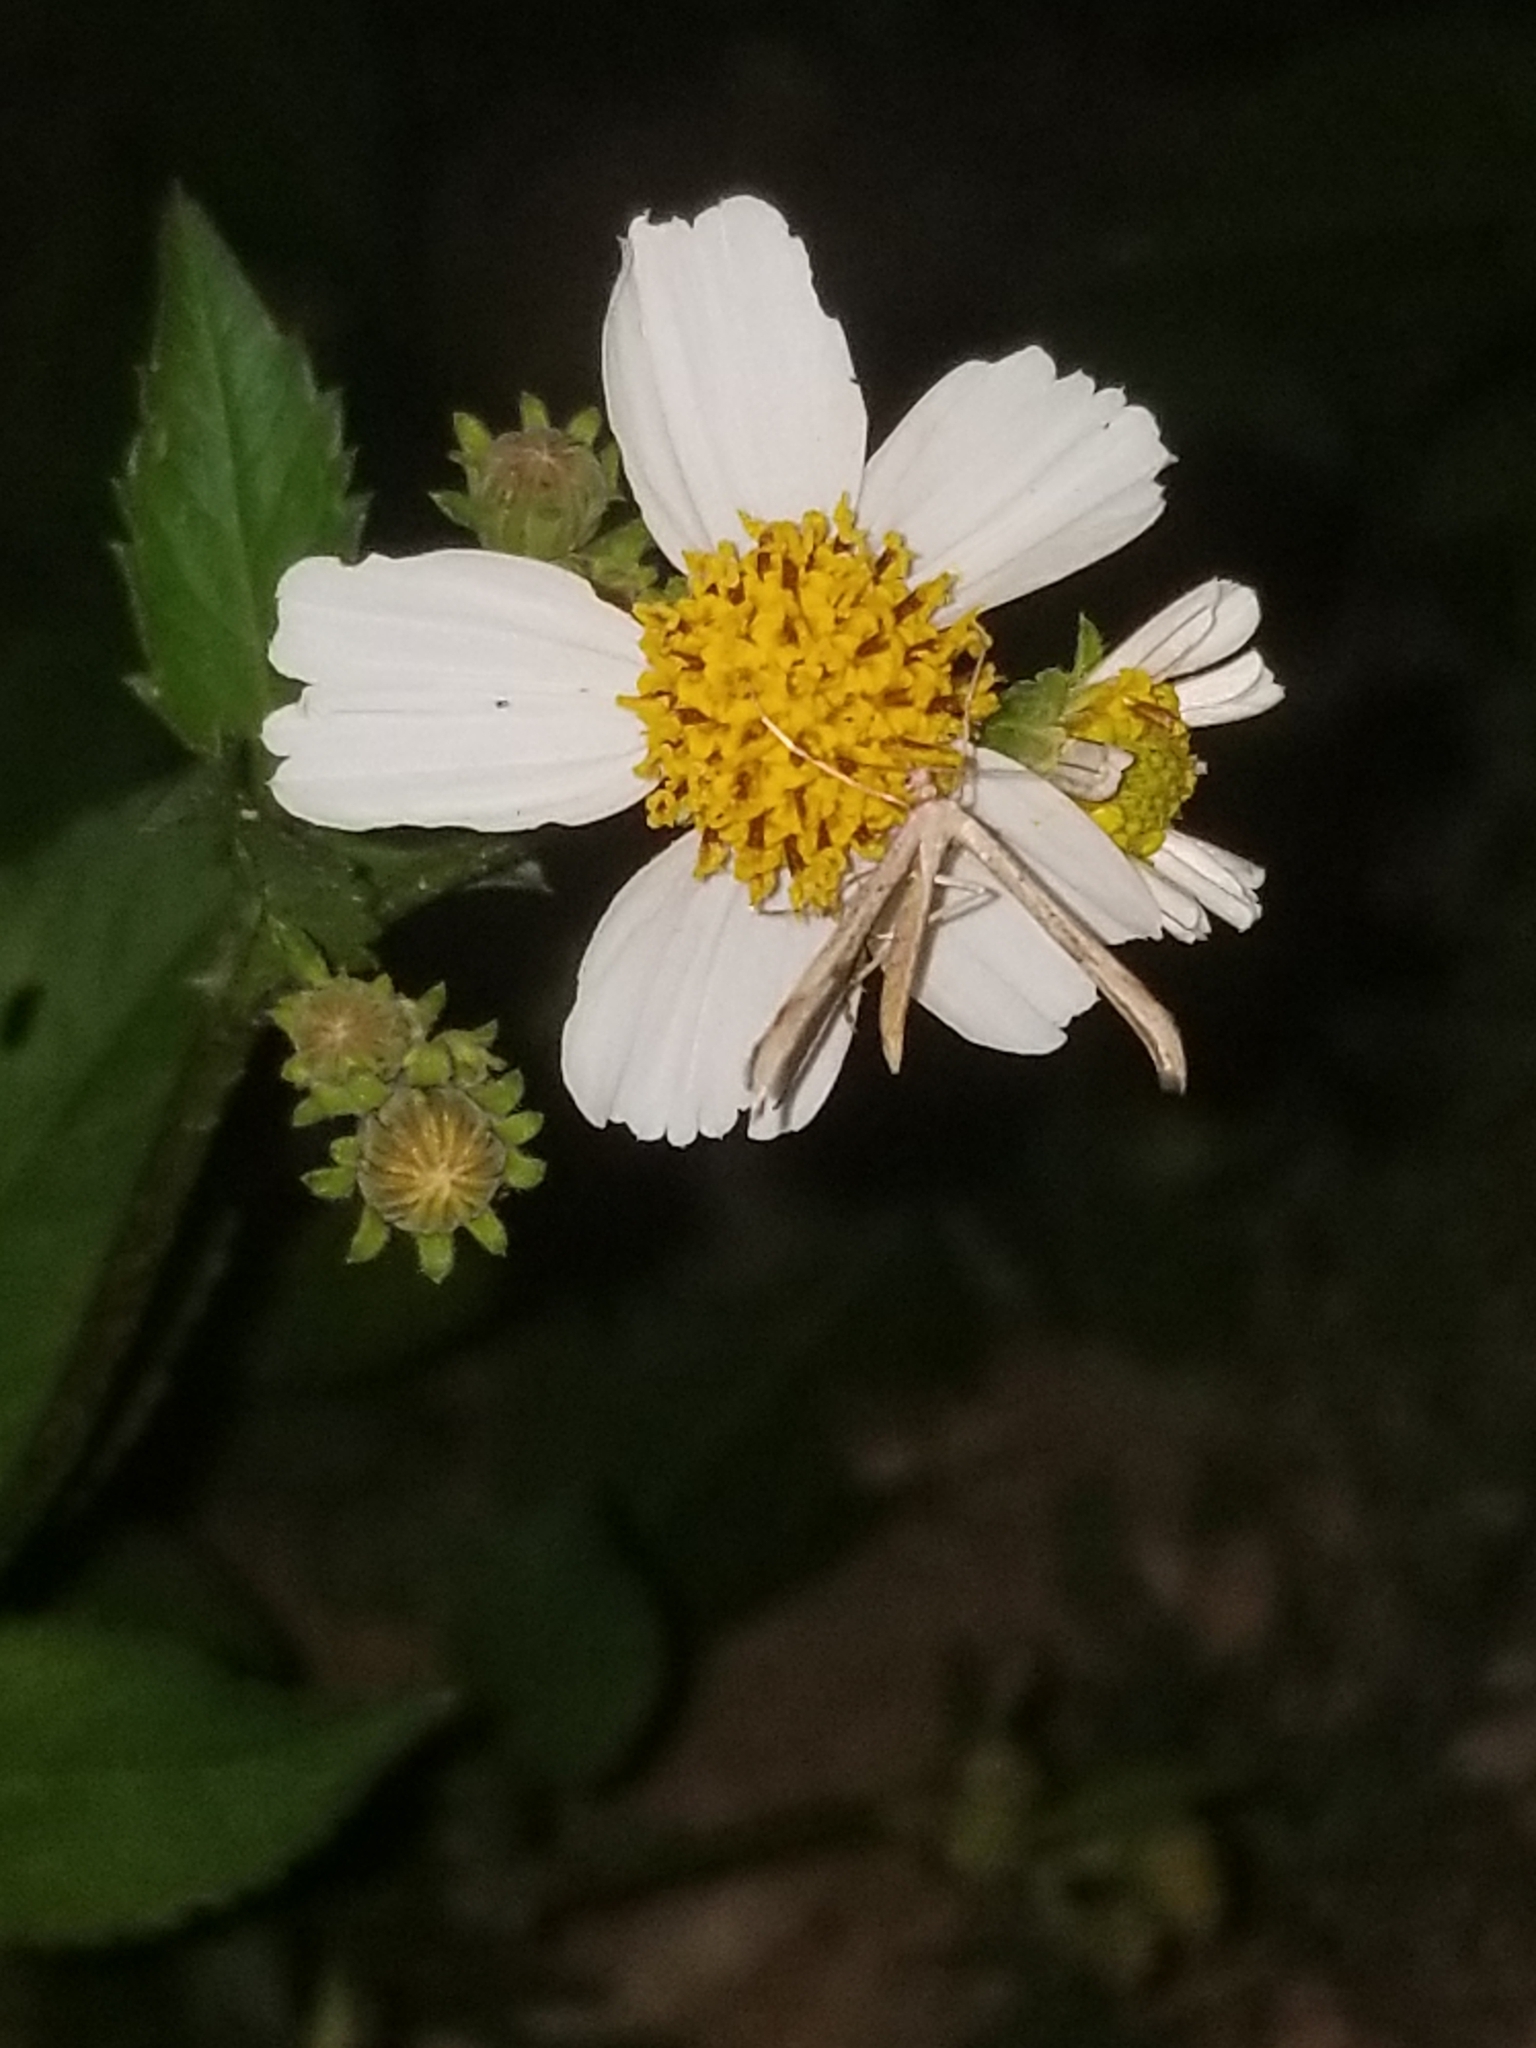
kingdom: Animalia
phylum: Arthropoda
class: Insecta
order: Lepidoptera
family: Pterophoridae
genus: Emmelina
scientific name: Emmelina monodactyla
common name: Common plume
